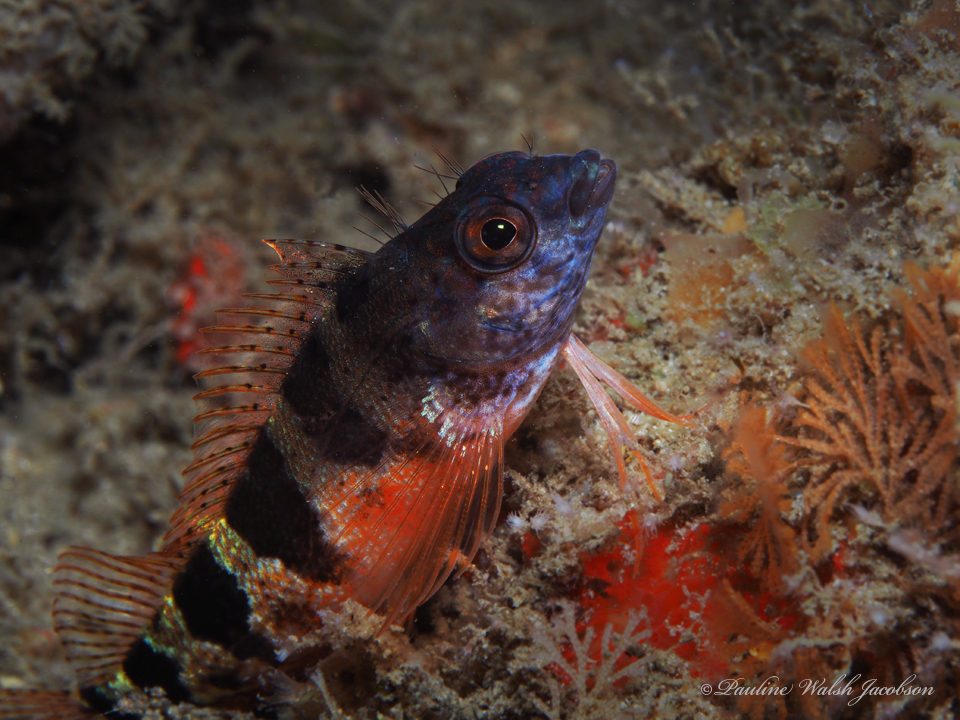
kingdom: Animalia
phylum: Chordata
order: Perciformes
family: Labrisomidae
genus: Malacoctenus
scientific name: Malacoctenus triangulatus
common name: Saddled blenny
